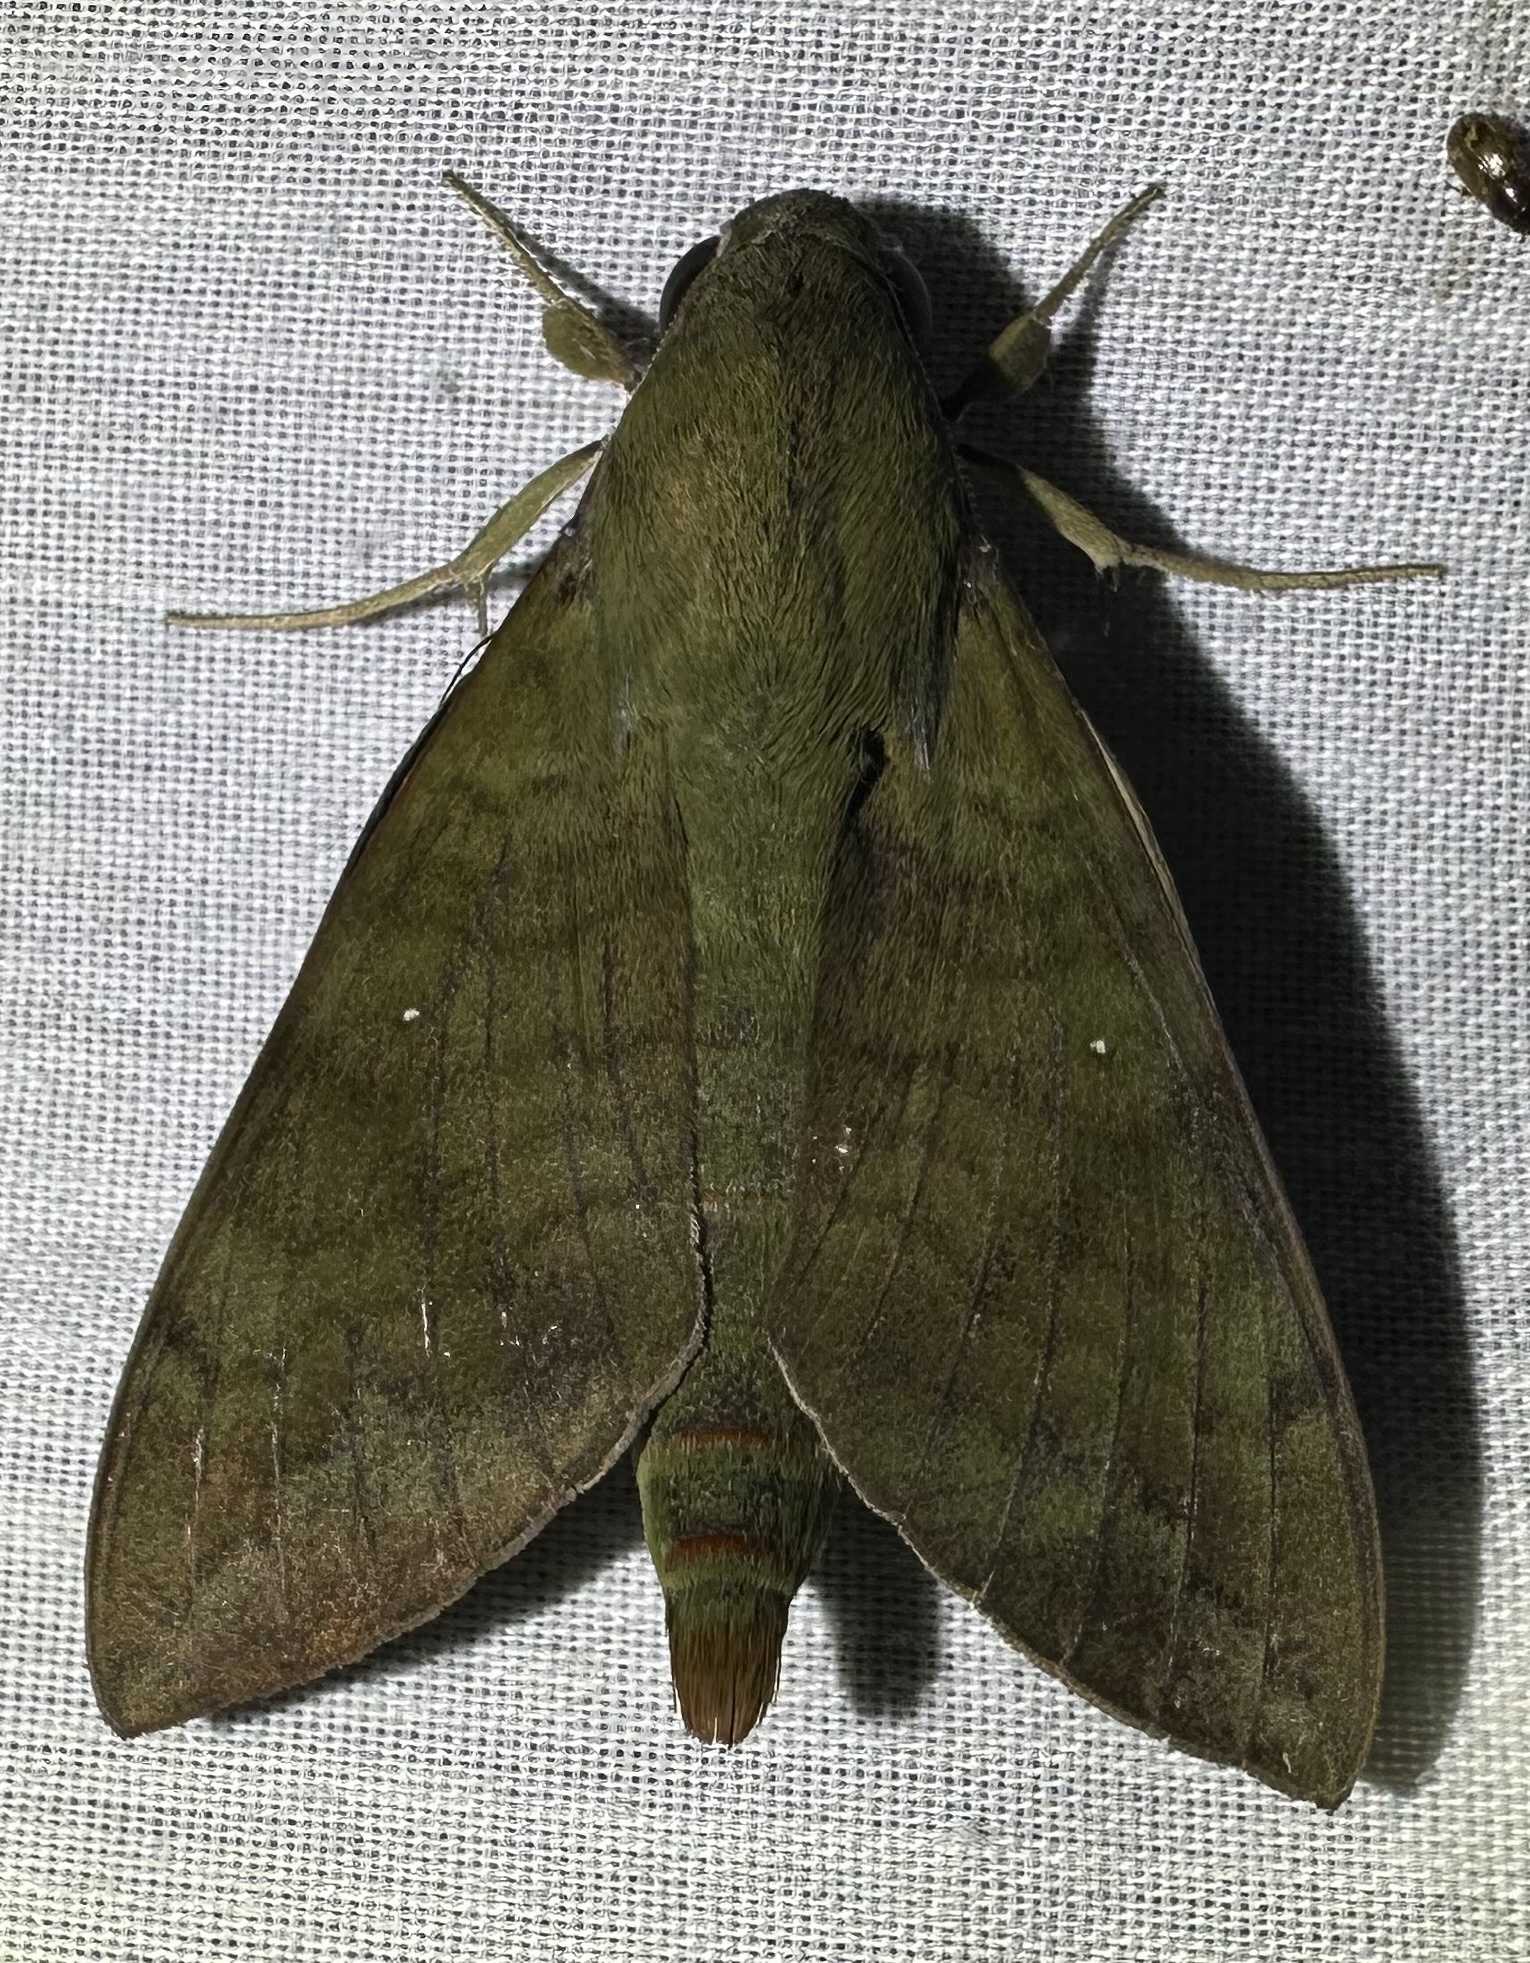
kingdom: Animalia
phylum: Arthropoda
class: Insecta
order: Lepidoptera
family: Sphingidae
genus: Nephele
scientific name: Nephele comma
